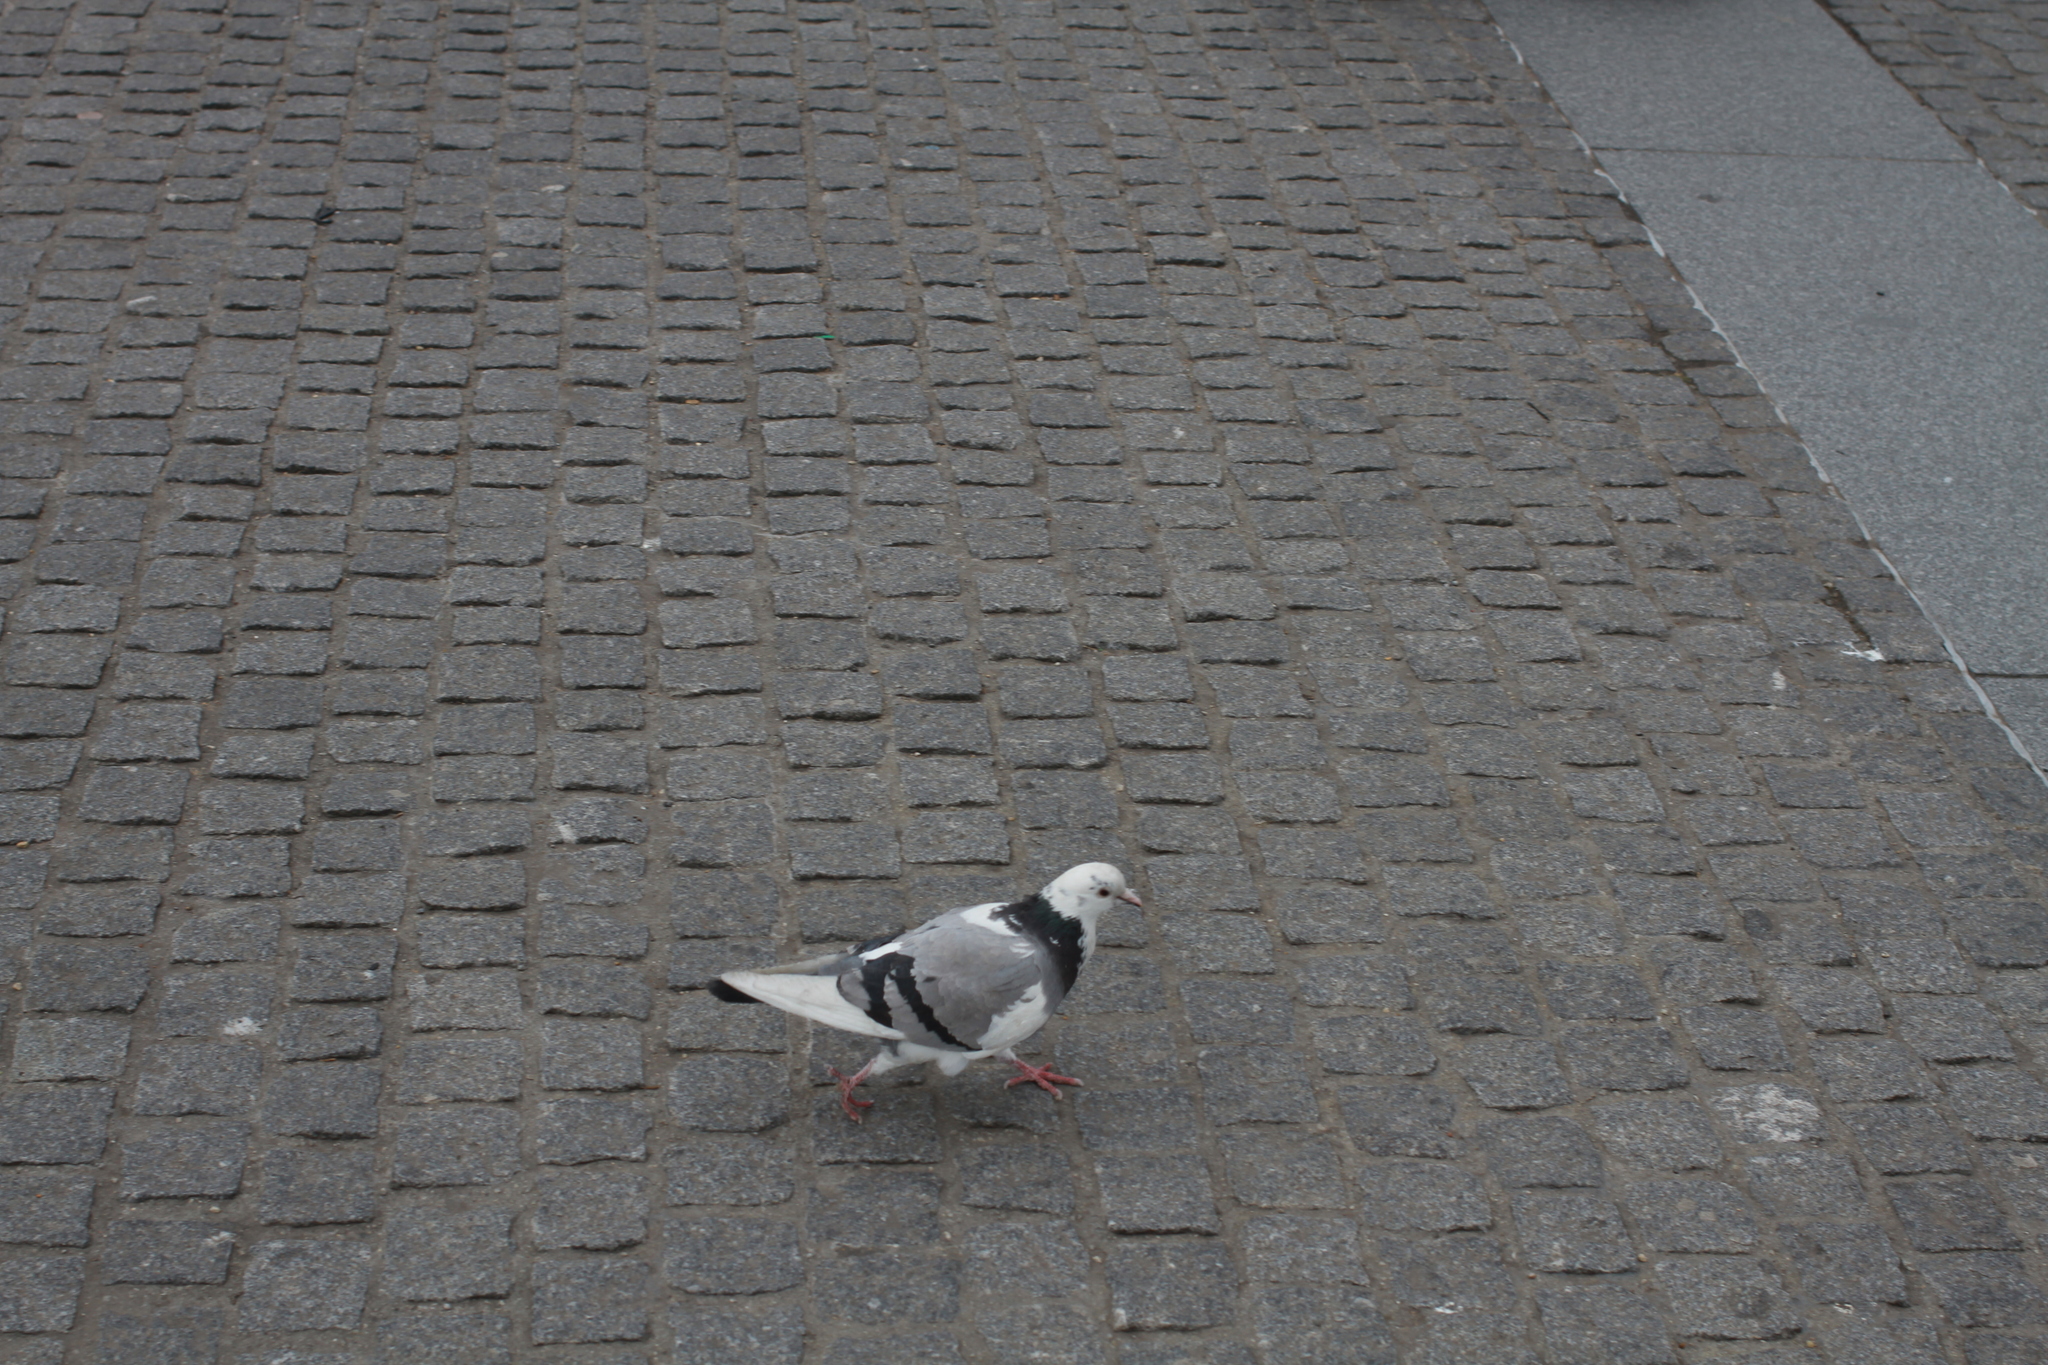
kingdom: Animalia
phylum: Chordata
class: Aves
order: Columbiformes
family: Columbidae
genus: Columba
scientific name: Columba livia
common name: Rock pigeon
